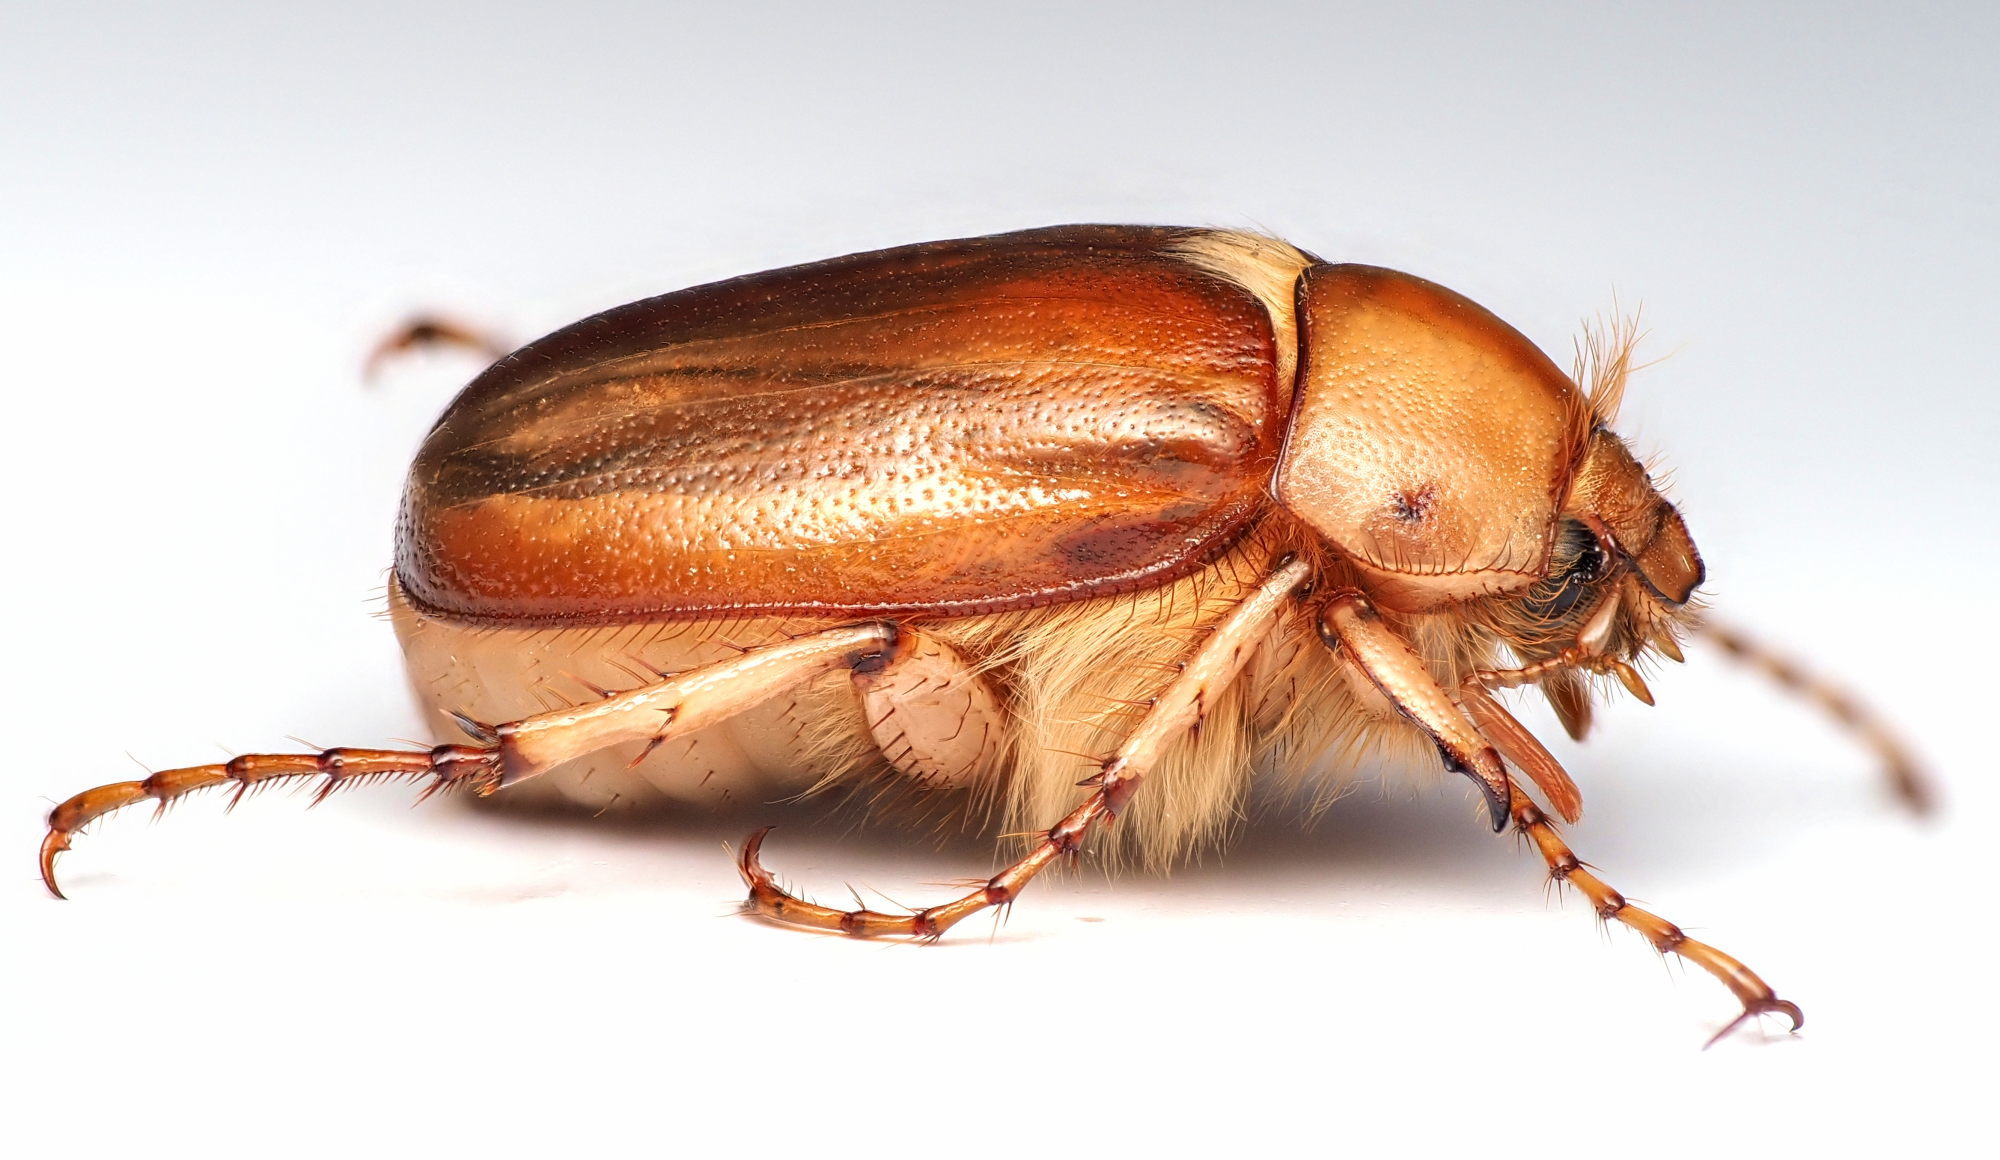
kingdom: Animalia
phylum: Arthropoda
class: Insecta
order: Coleoptera
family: Scarabaeidae
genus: Rhizotrogus
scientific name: Rhizotrogus aestivus
